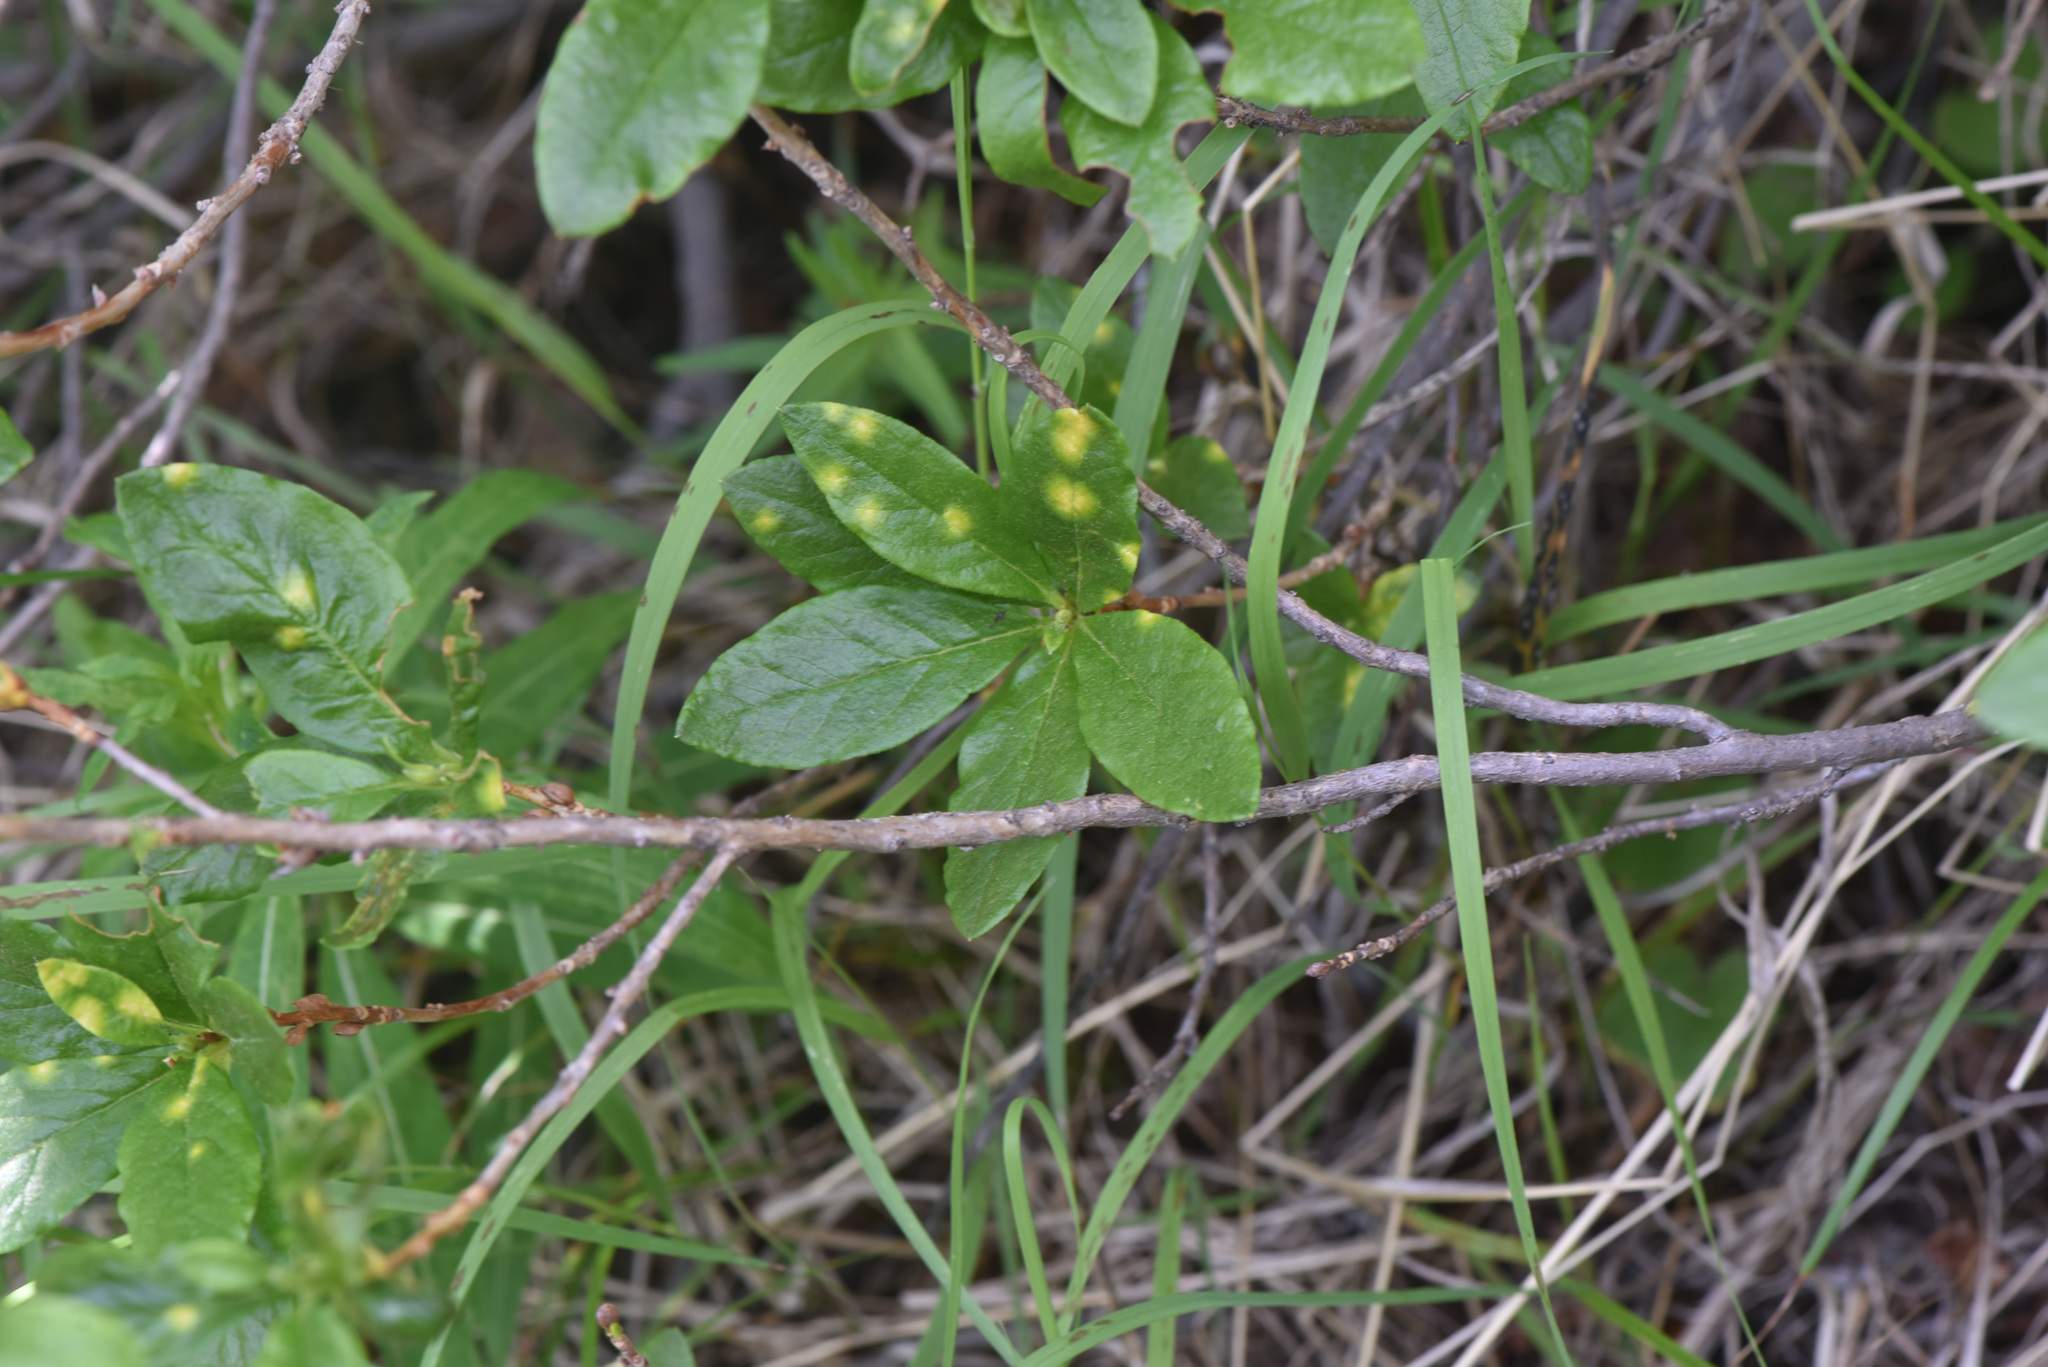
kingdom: Plantae
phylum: Tracheophyta
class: Magnoliopsida
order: Ericales
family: Ericaceae
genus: Rhododendron
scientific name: Rhododendron albiflorum
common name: White rhododendron
